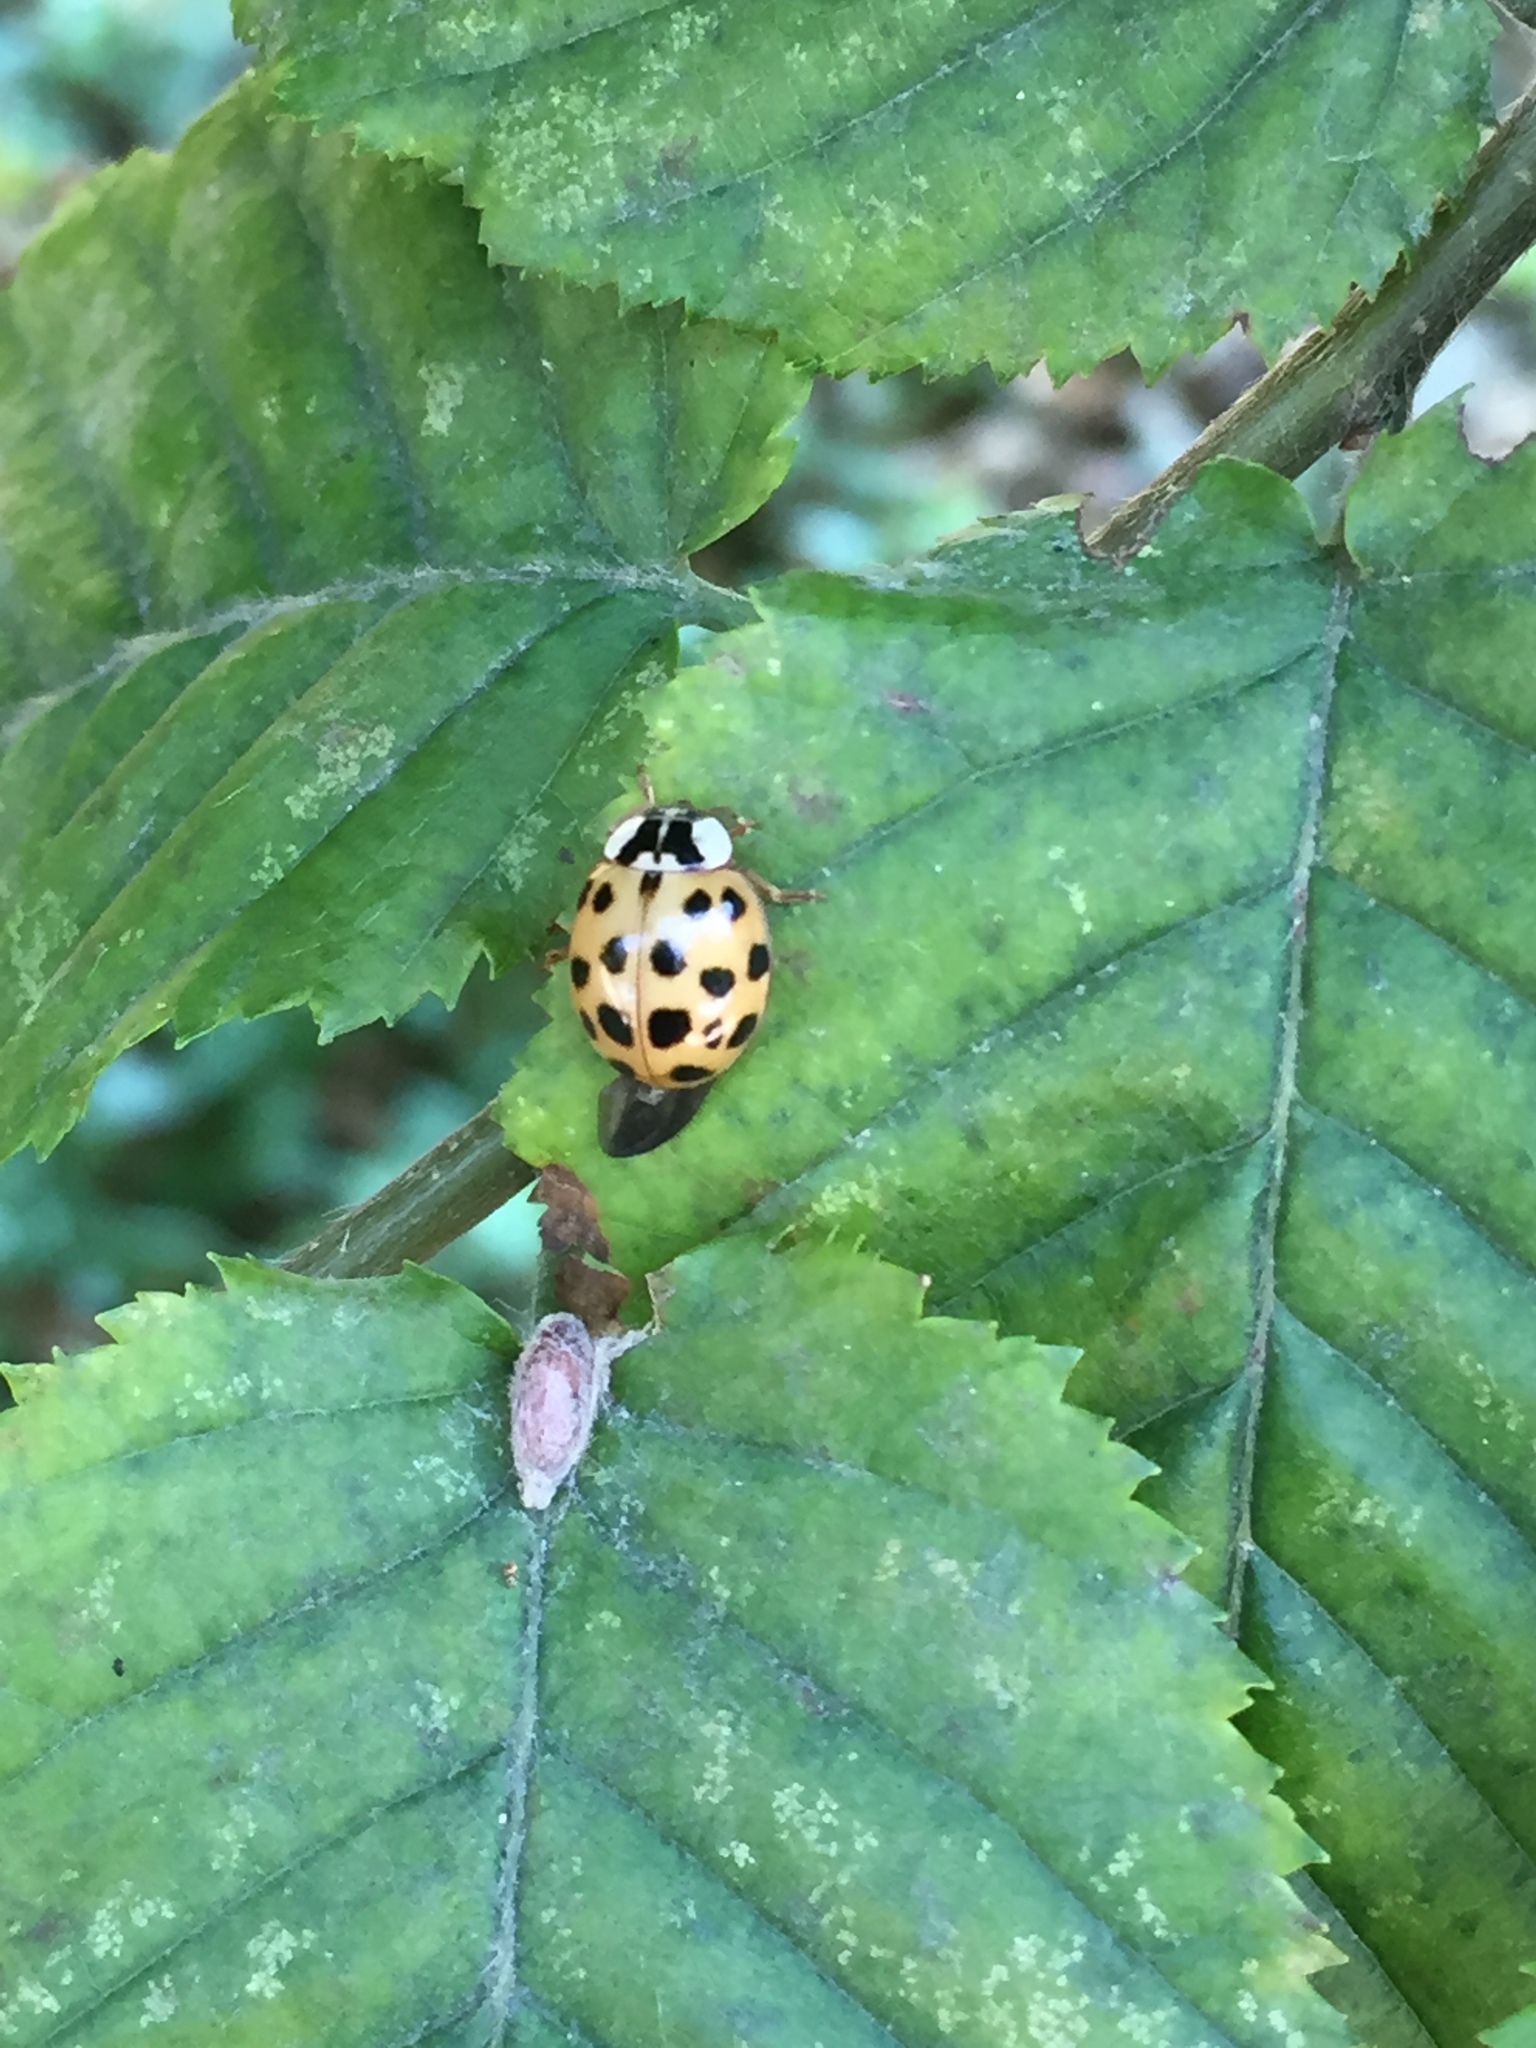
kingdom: Animalia
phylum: Arthropoda
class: Insecta
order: Coleoptera
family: Coccinellidae
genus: Harmonia
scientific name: Harmonia axyridis
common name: Harlequin ladybird
